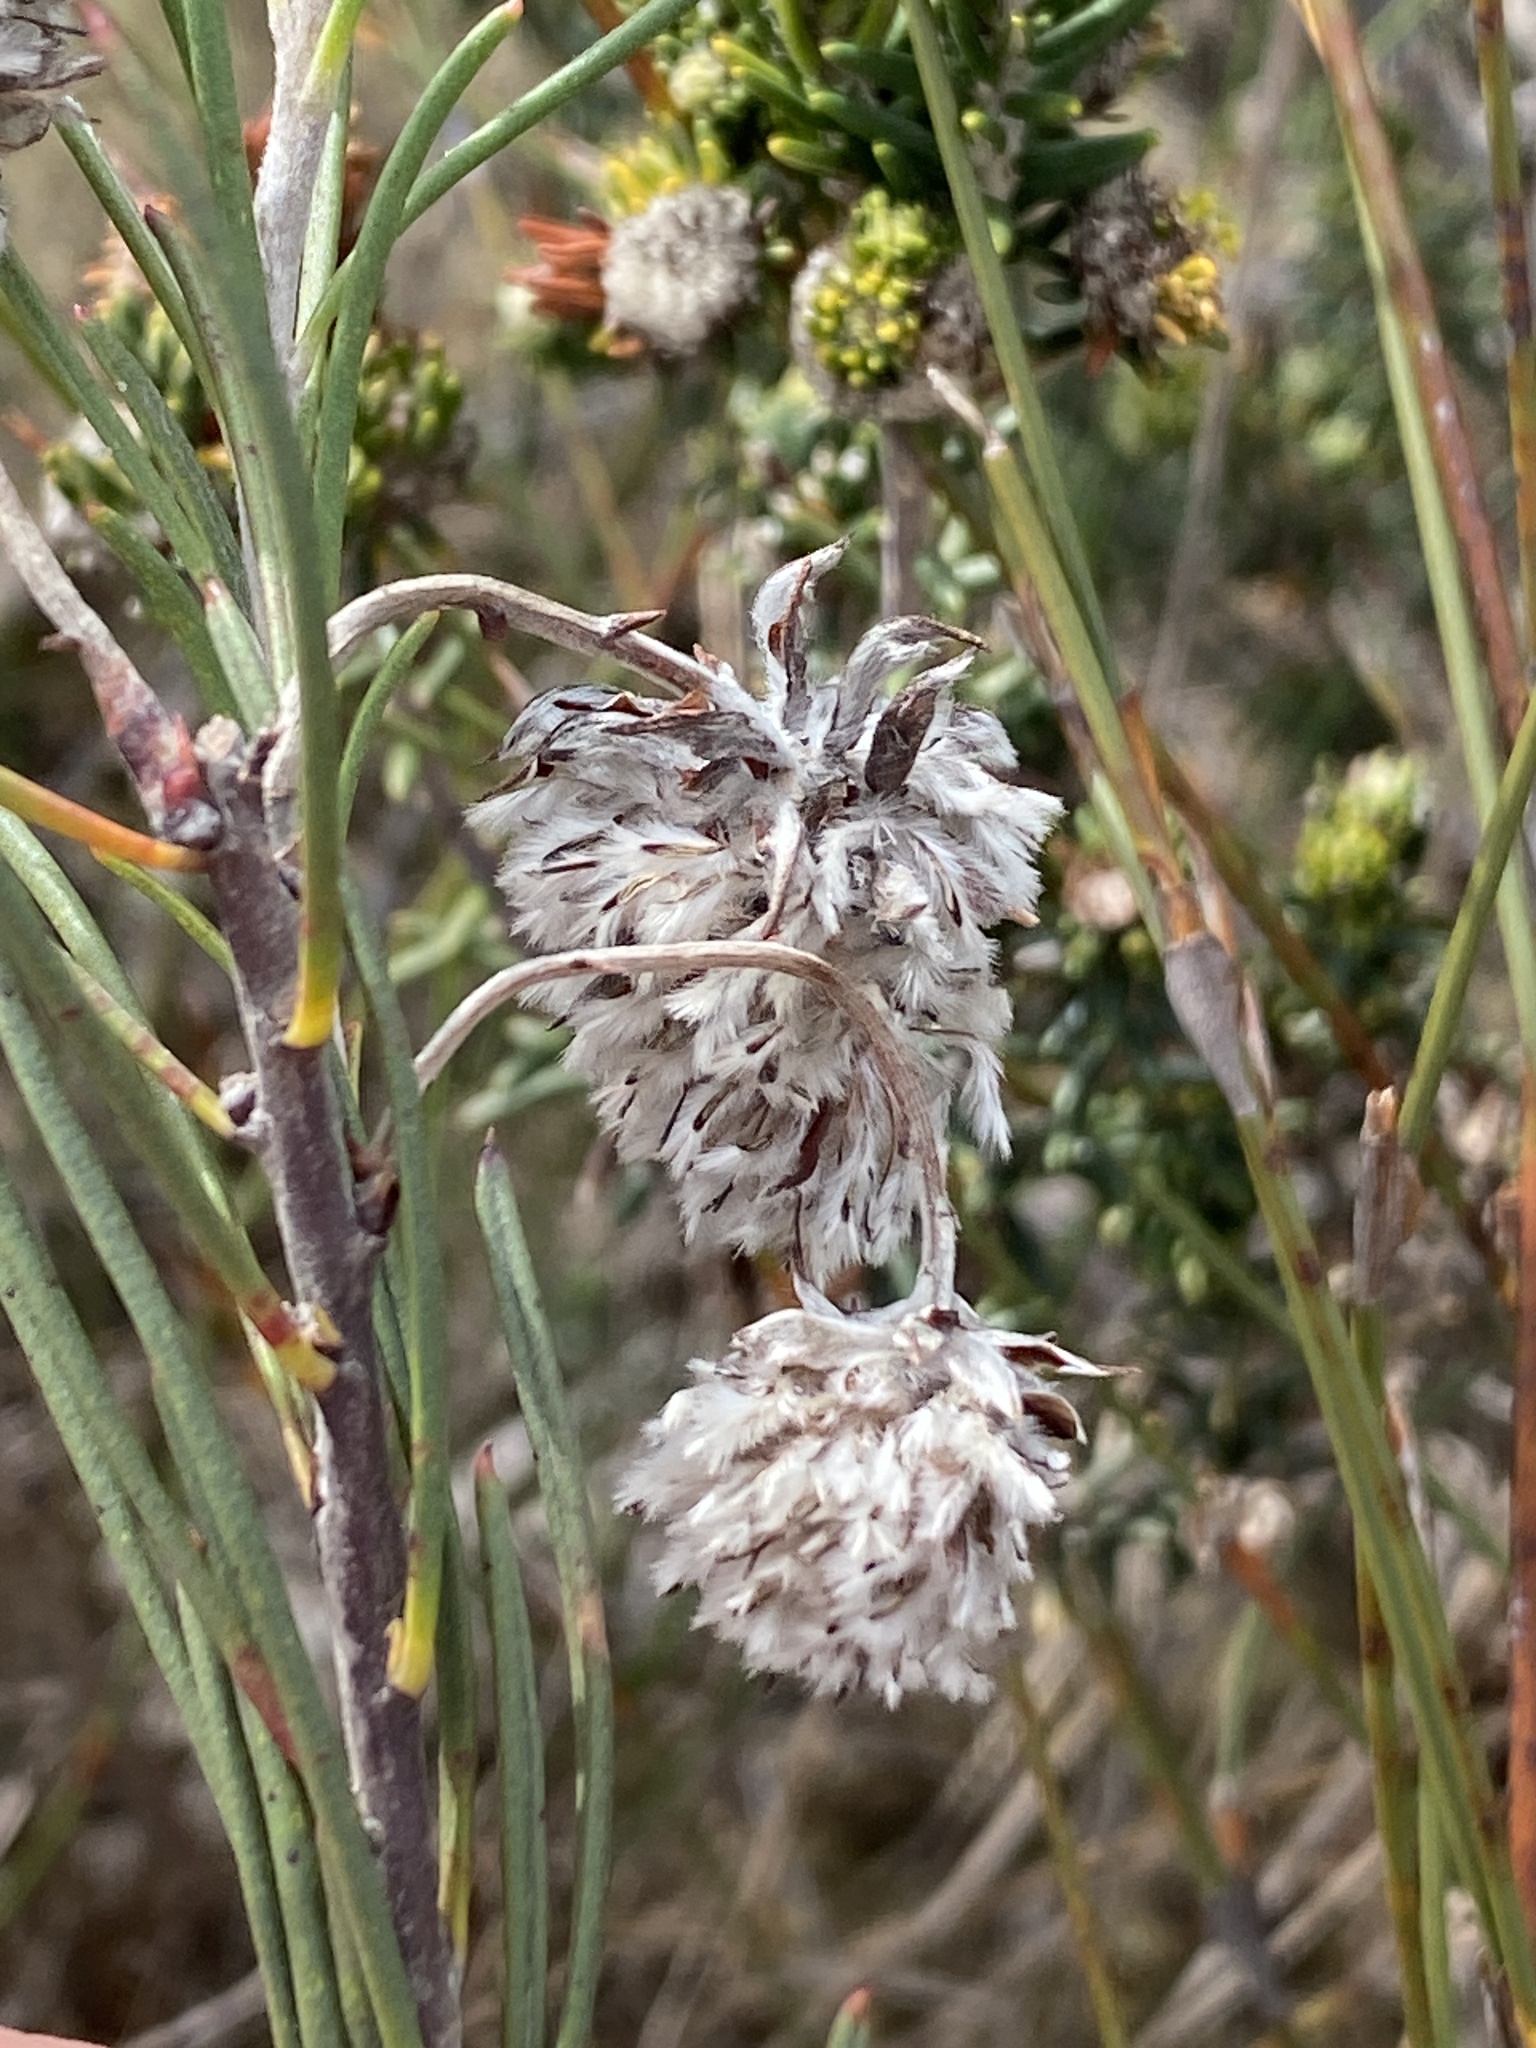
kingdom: Plantae
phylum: Tracheophyta
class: Magnoliopsida
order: Proteales
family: Proteaceae
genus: Serruria
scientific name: Serruria linearis
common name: Needle-leaf spiderhead
